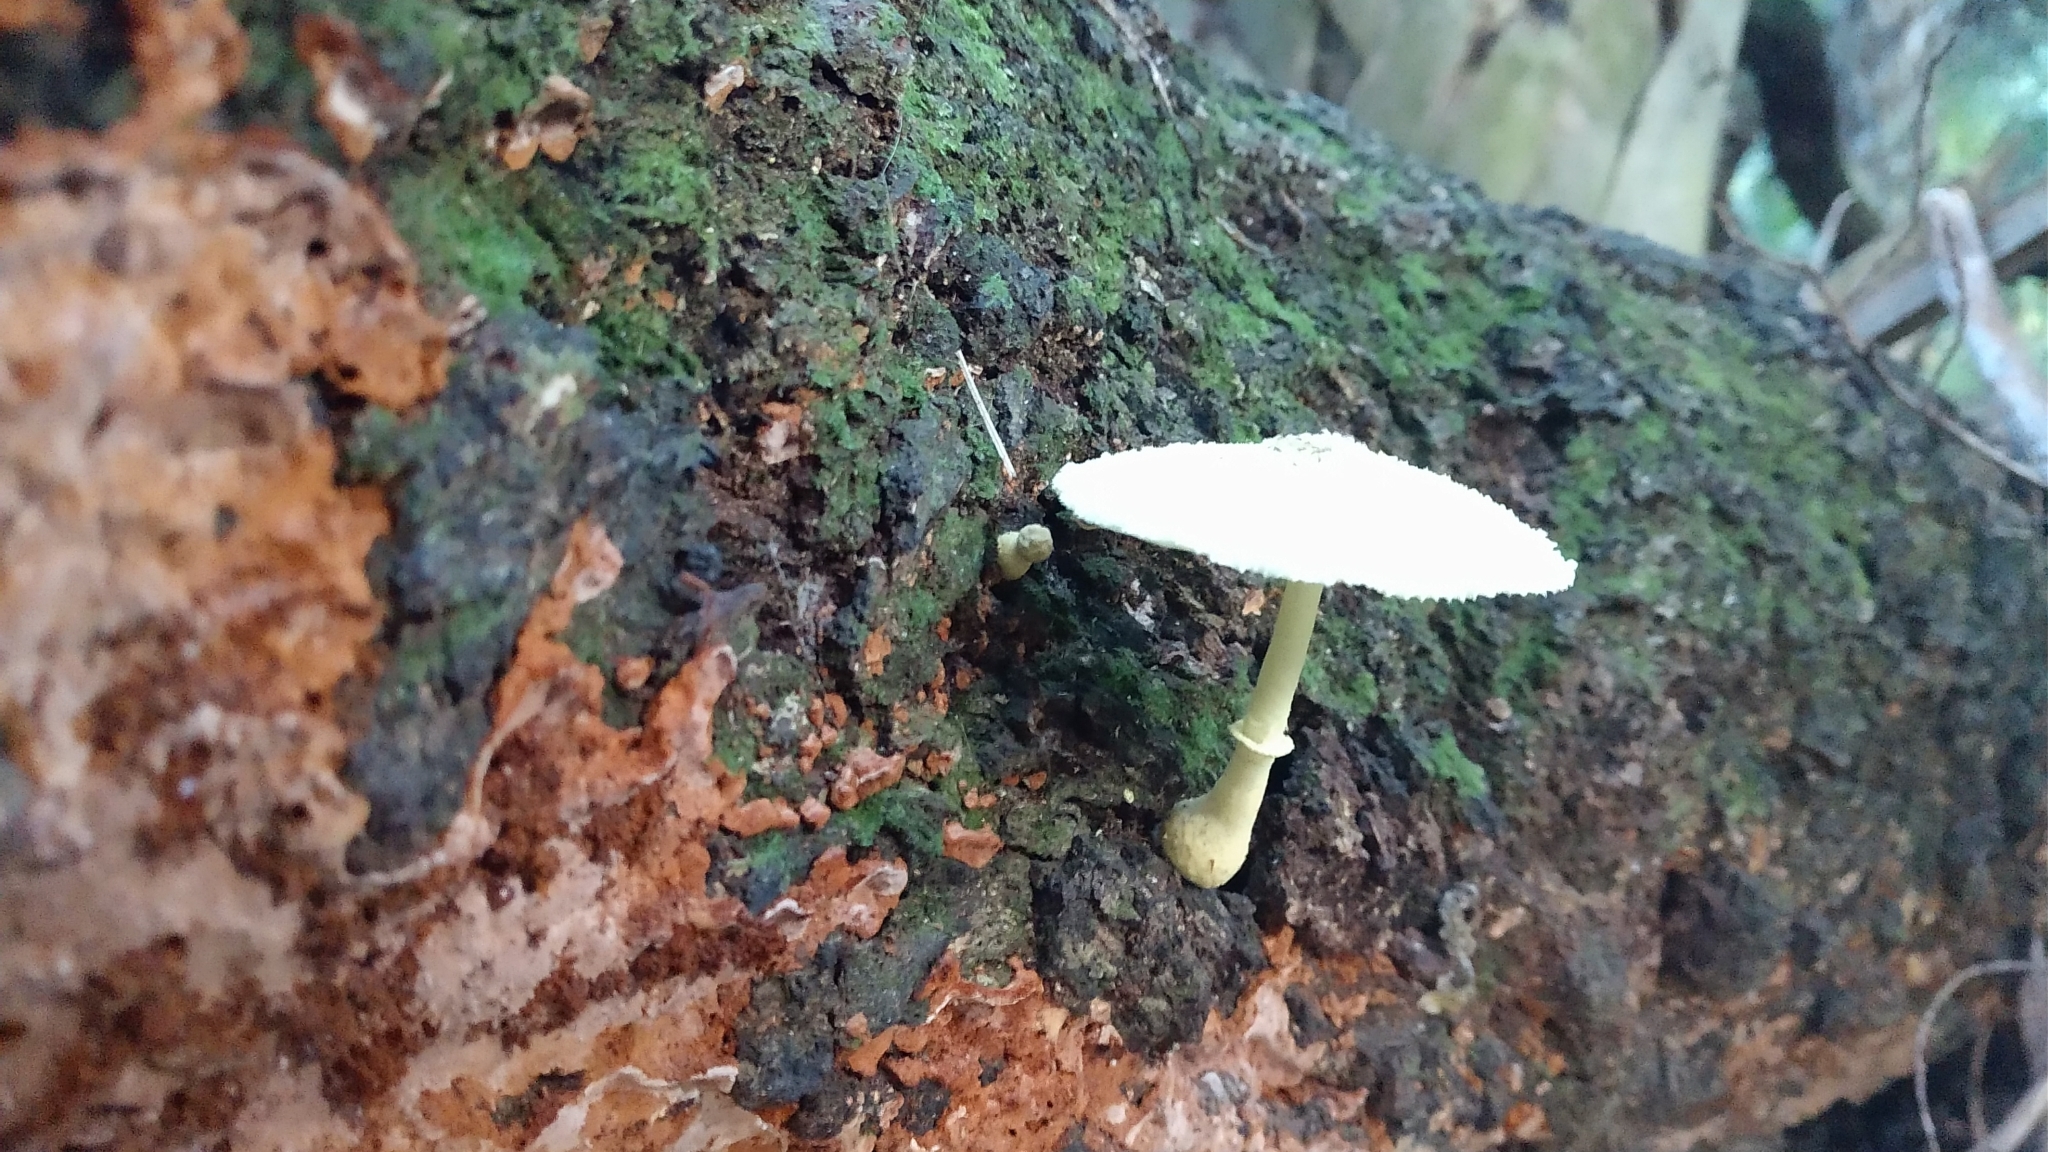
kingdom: Fungi
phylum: Basidiomycota
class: Agaricomycetes
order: Agaricales
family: Agaricaceae
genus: Leucocoprinus
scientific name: Leucocoprinus birnbaumii
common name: Plantpot dapperling
